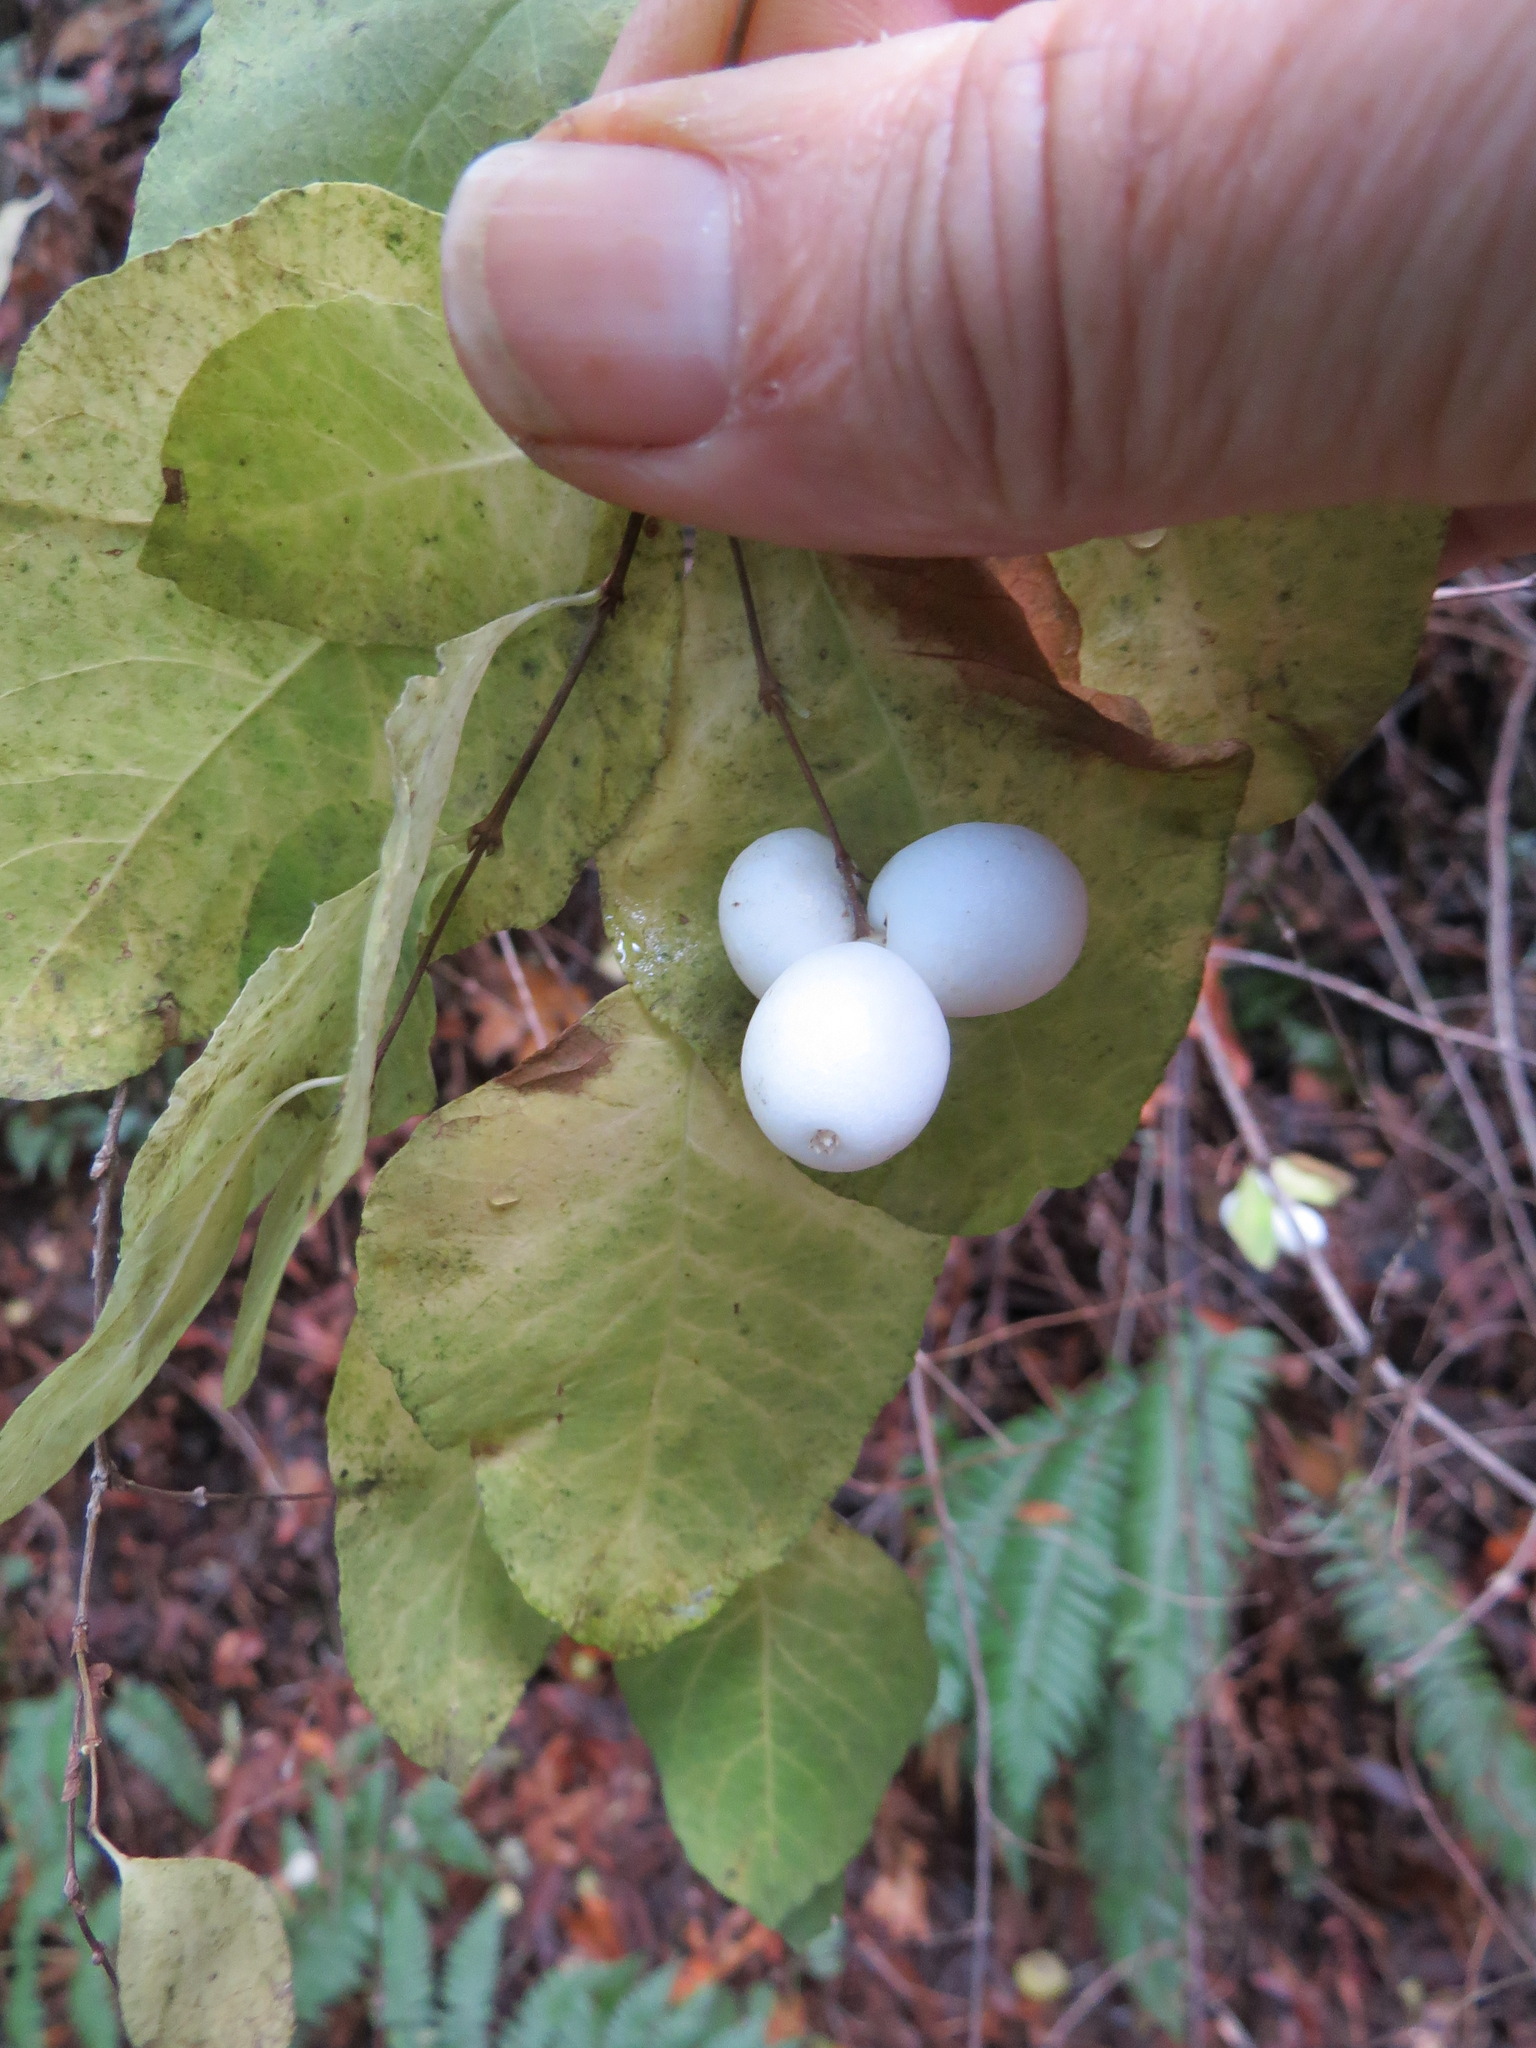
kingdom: Plantae
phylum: Tracheophyta
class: Magnoliopsida
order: Dipsacales
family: Caprifoliaceae
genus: Symphoricarpos
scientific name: Symphoricarpos albus
